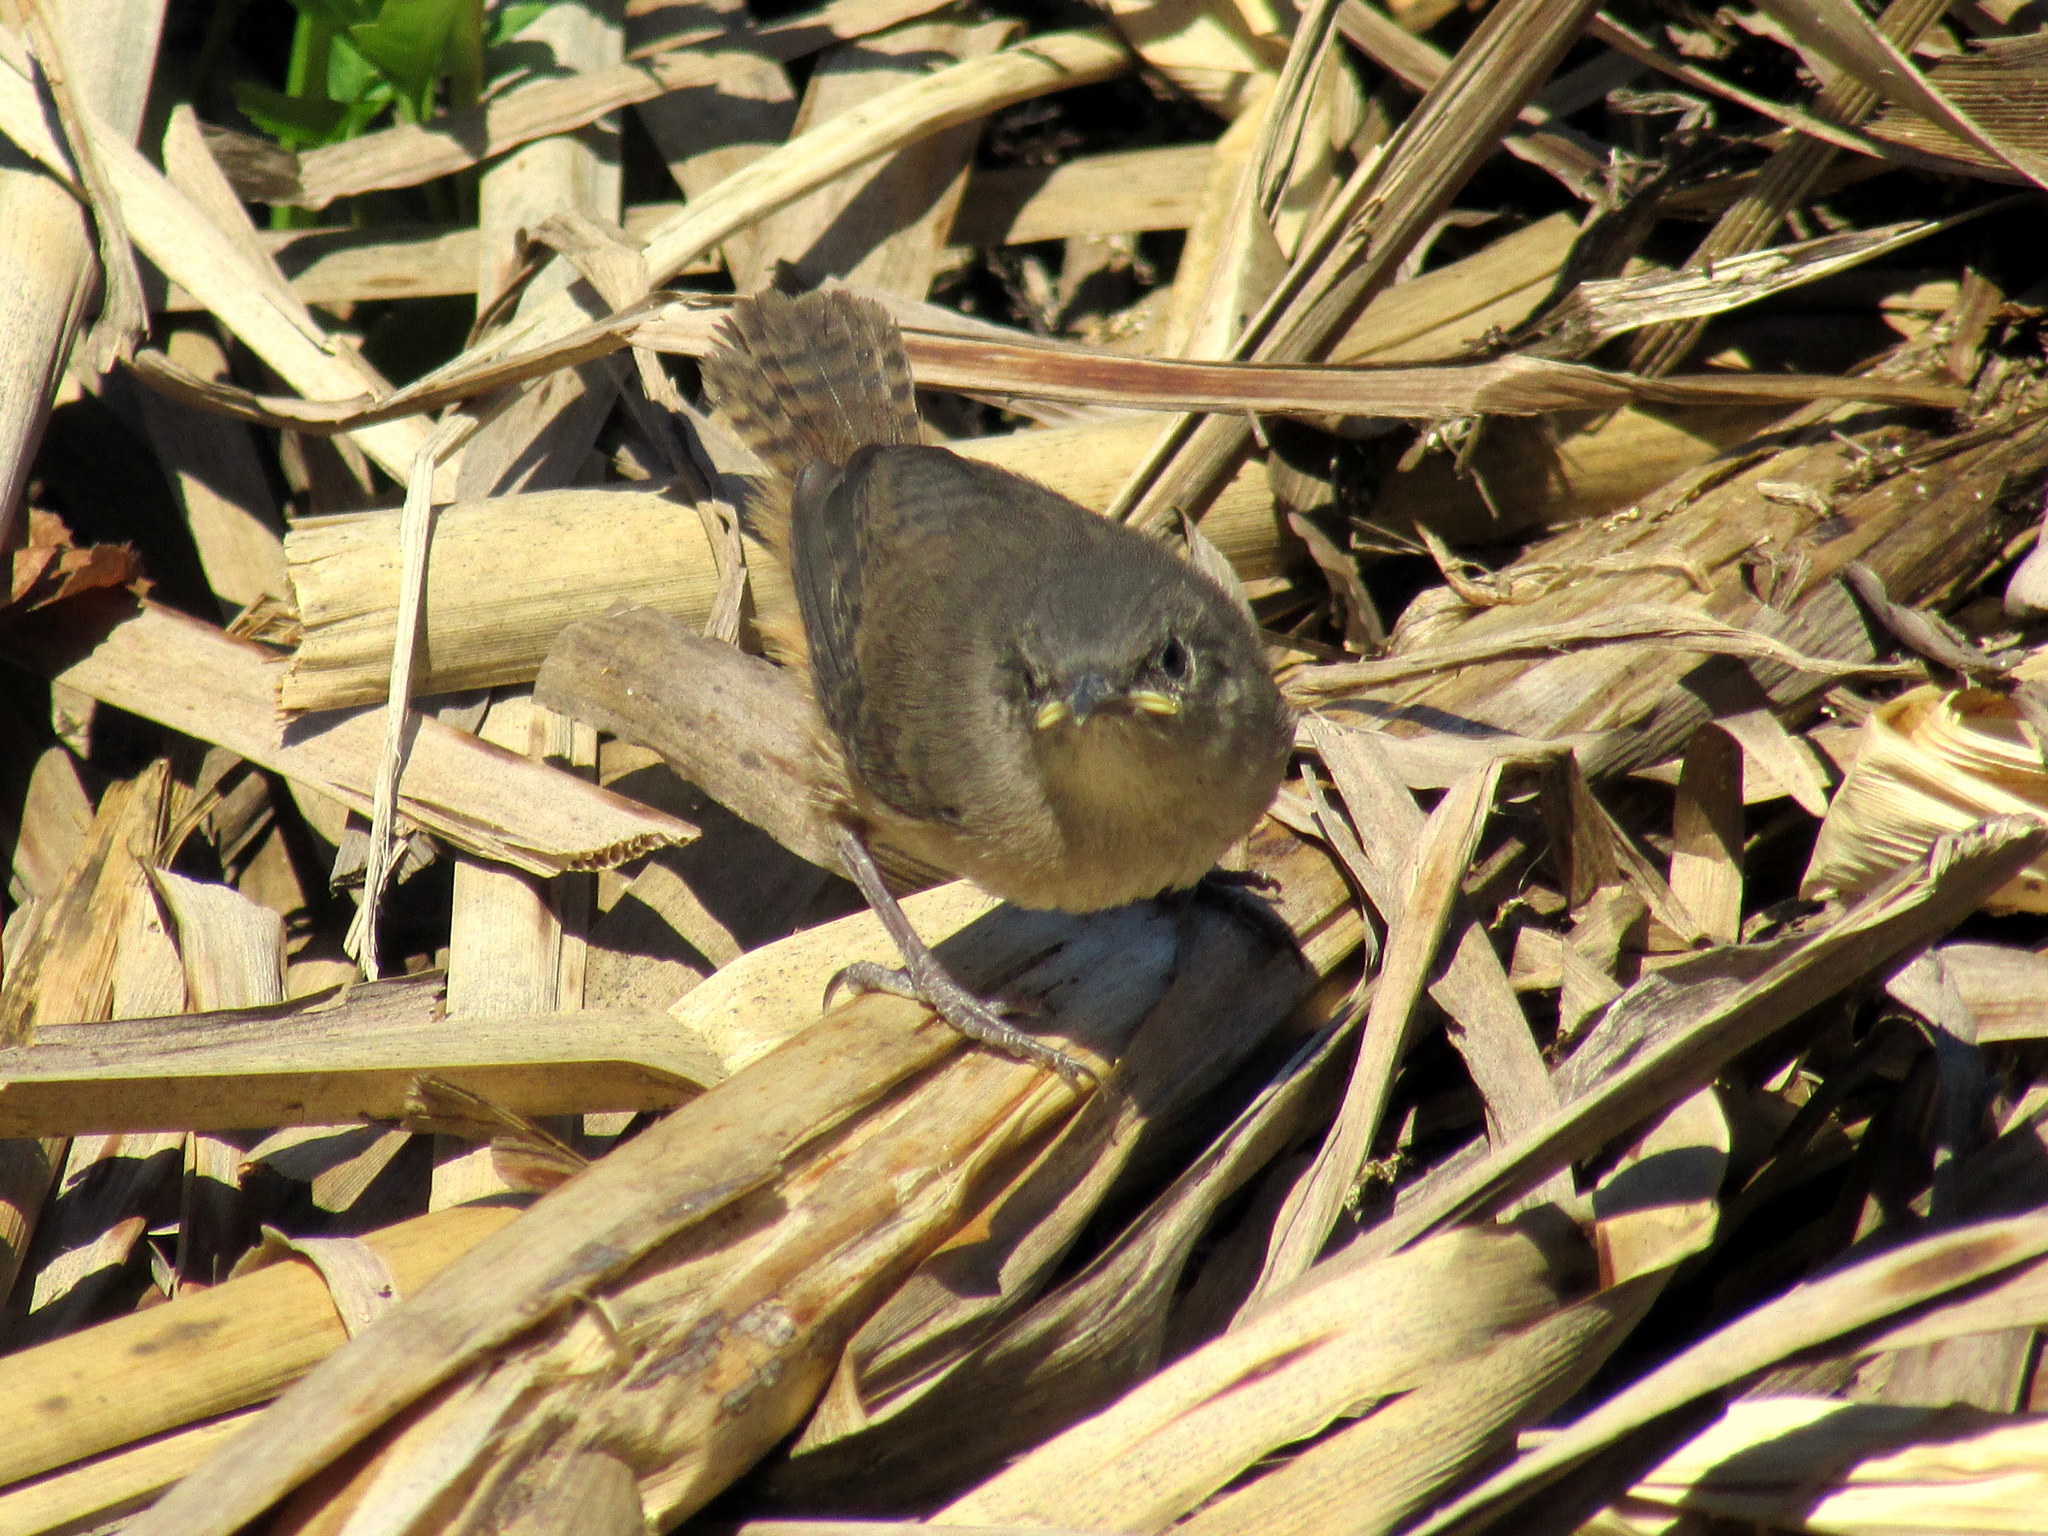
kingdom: Animalia
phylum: Chordata
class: Aves
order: Passeriformes
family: Troglodytidae
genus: Troglodytes
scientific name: Troglodytes aedon
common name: House wren
